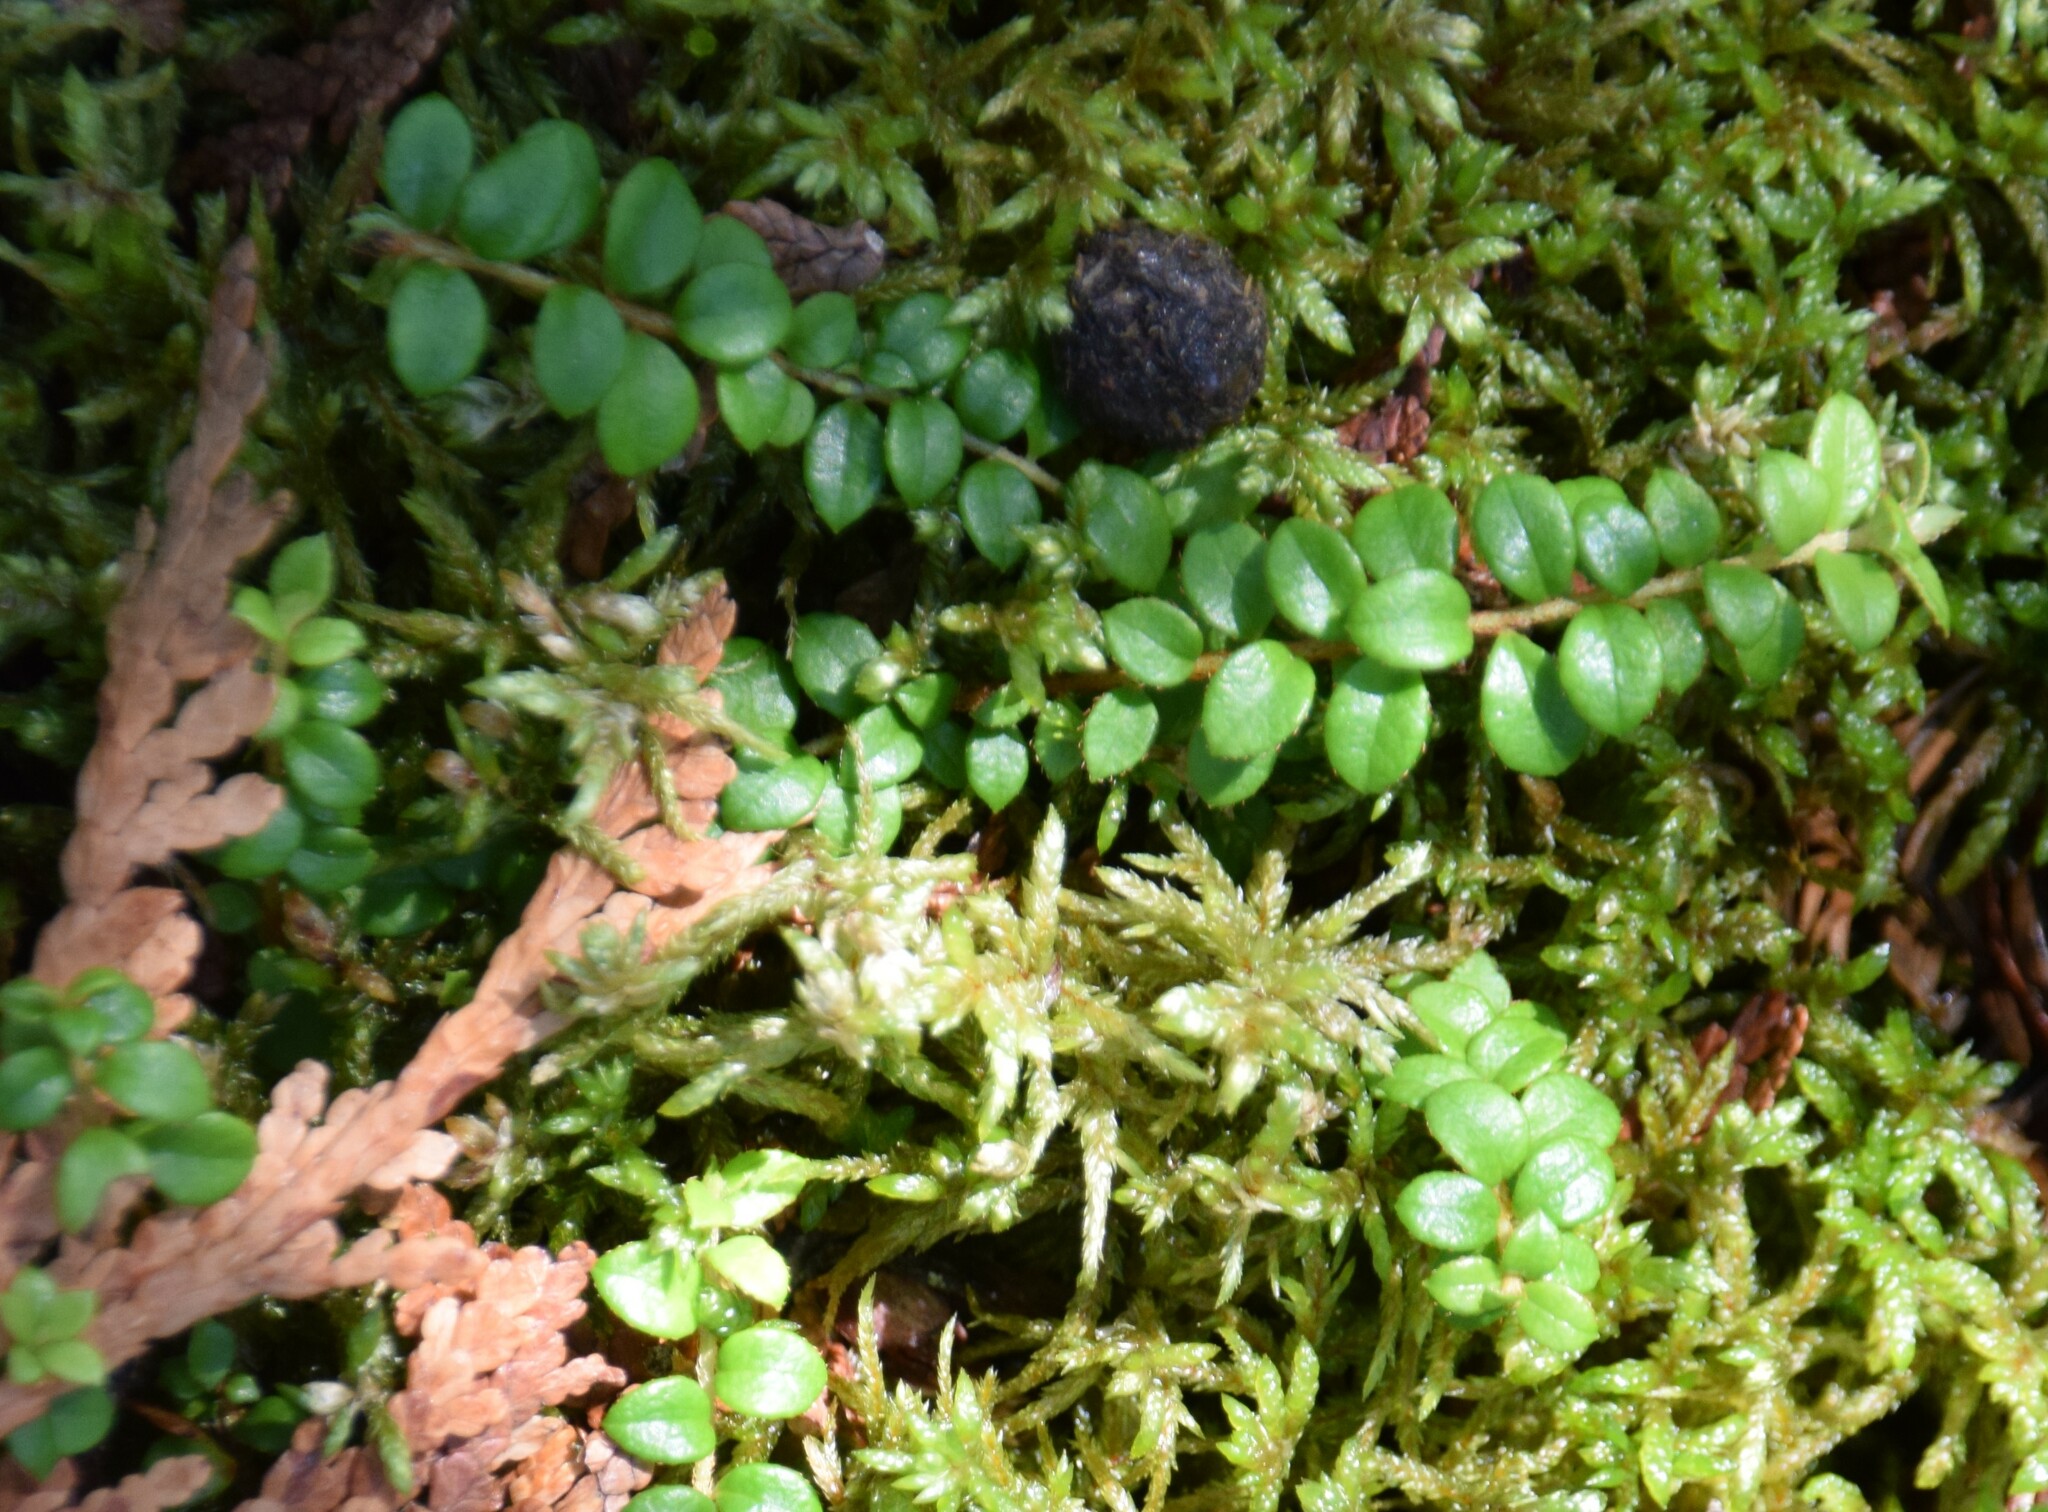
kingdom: Plantae
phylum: Tracheophyta
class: Magnoliopsida
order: Ericales
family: Ericaceae
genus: Gaultheria
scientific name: Gaultheria hispidula
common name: Cancer wintergreen
